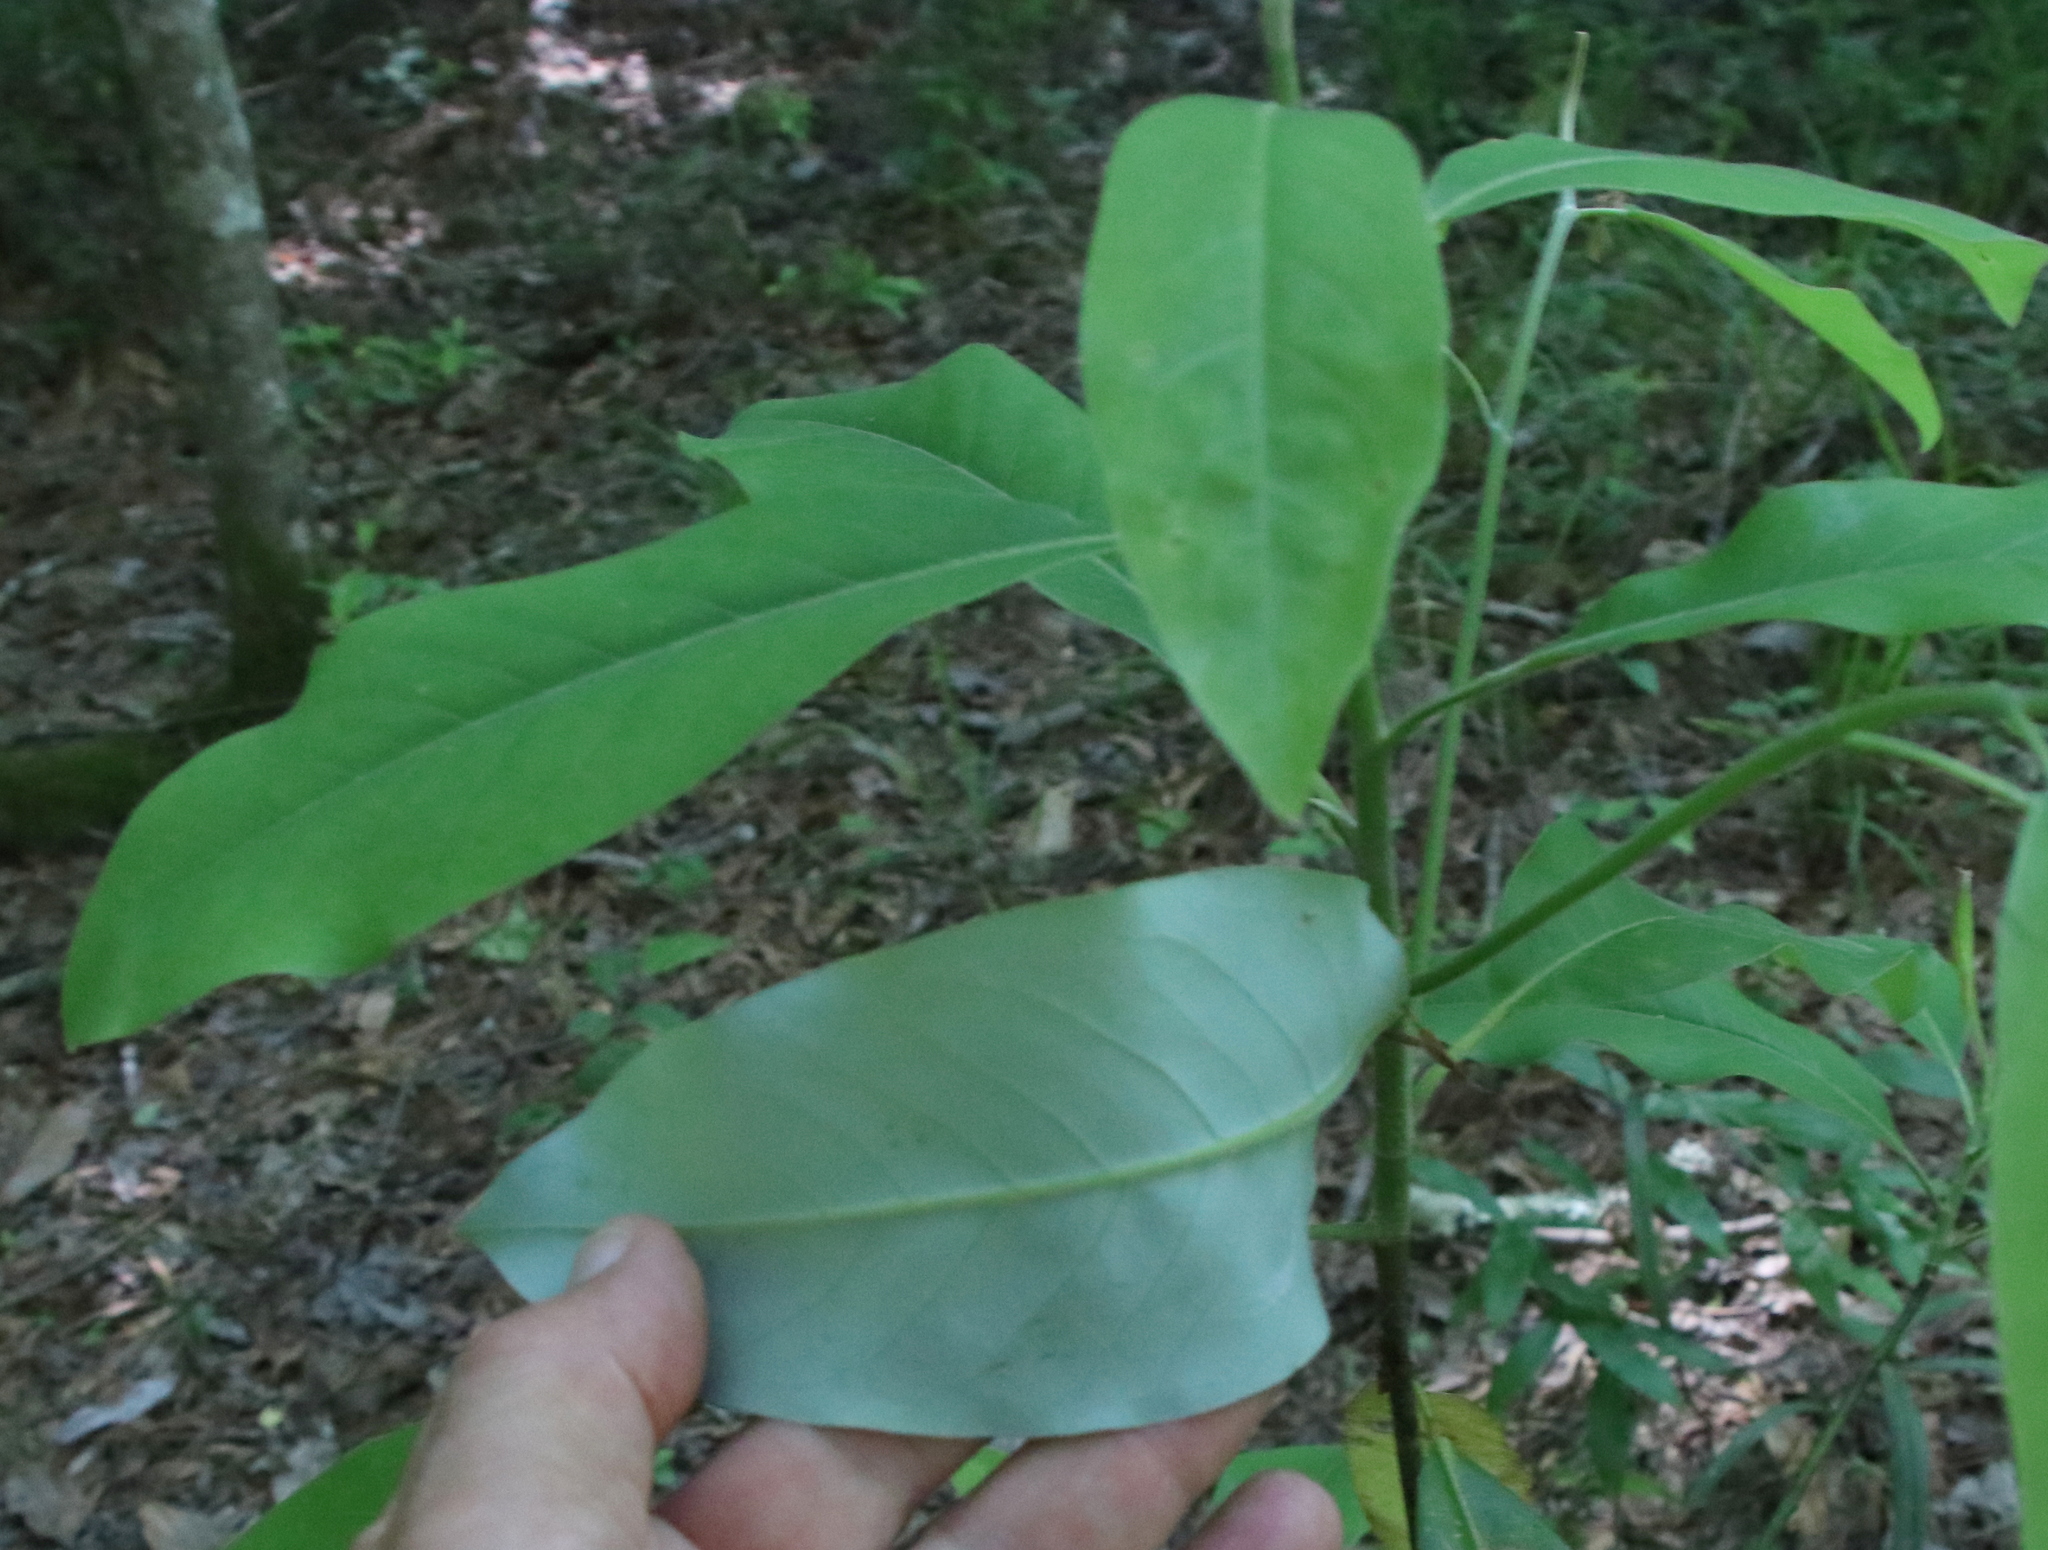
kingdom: Plantae
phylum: Tracheophyta
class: Magnoliopsida
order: Magnoliales
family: Magnoliaceae
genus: Magnolia
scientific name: Magnolia virginiana
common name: Swamp bay
